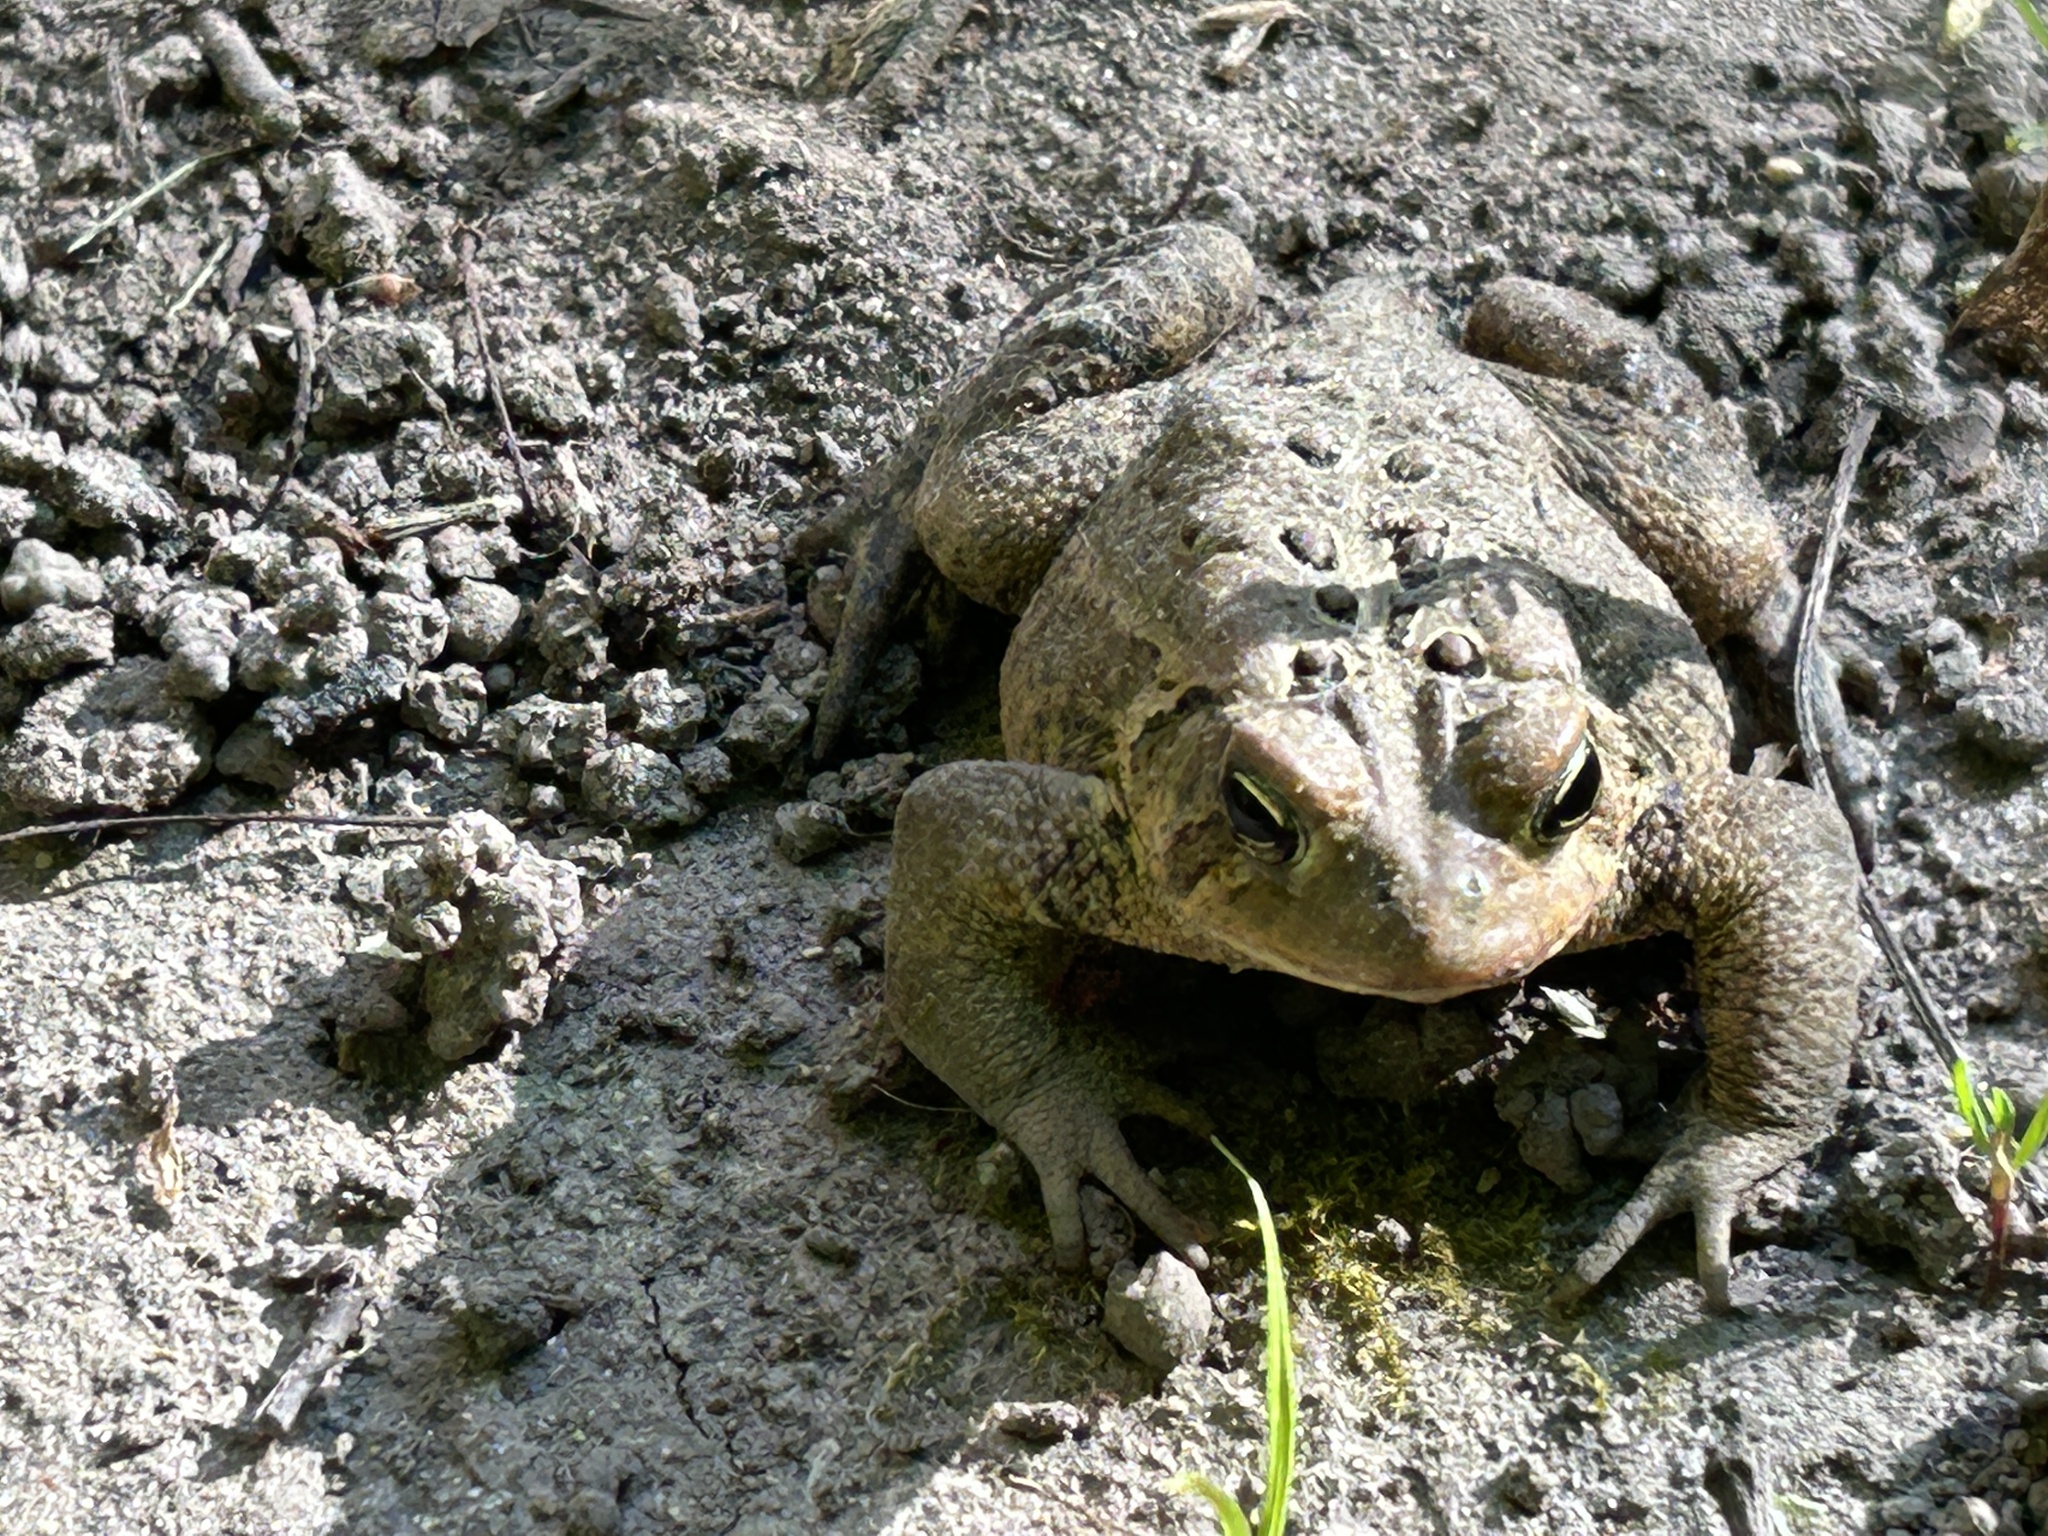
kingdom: Animalia
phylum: Chordata
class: Amphibia
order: Anura
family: Bufonidae
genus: Anaxyrus
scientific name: Anaxyrus americanus
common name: American toad
